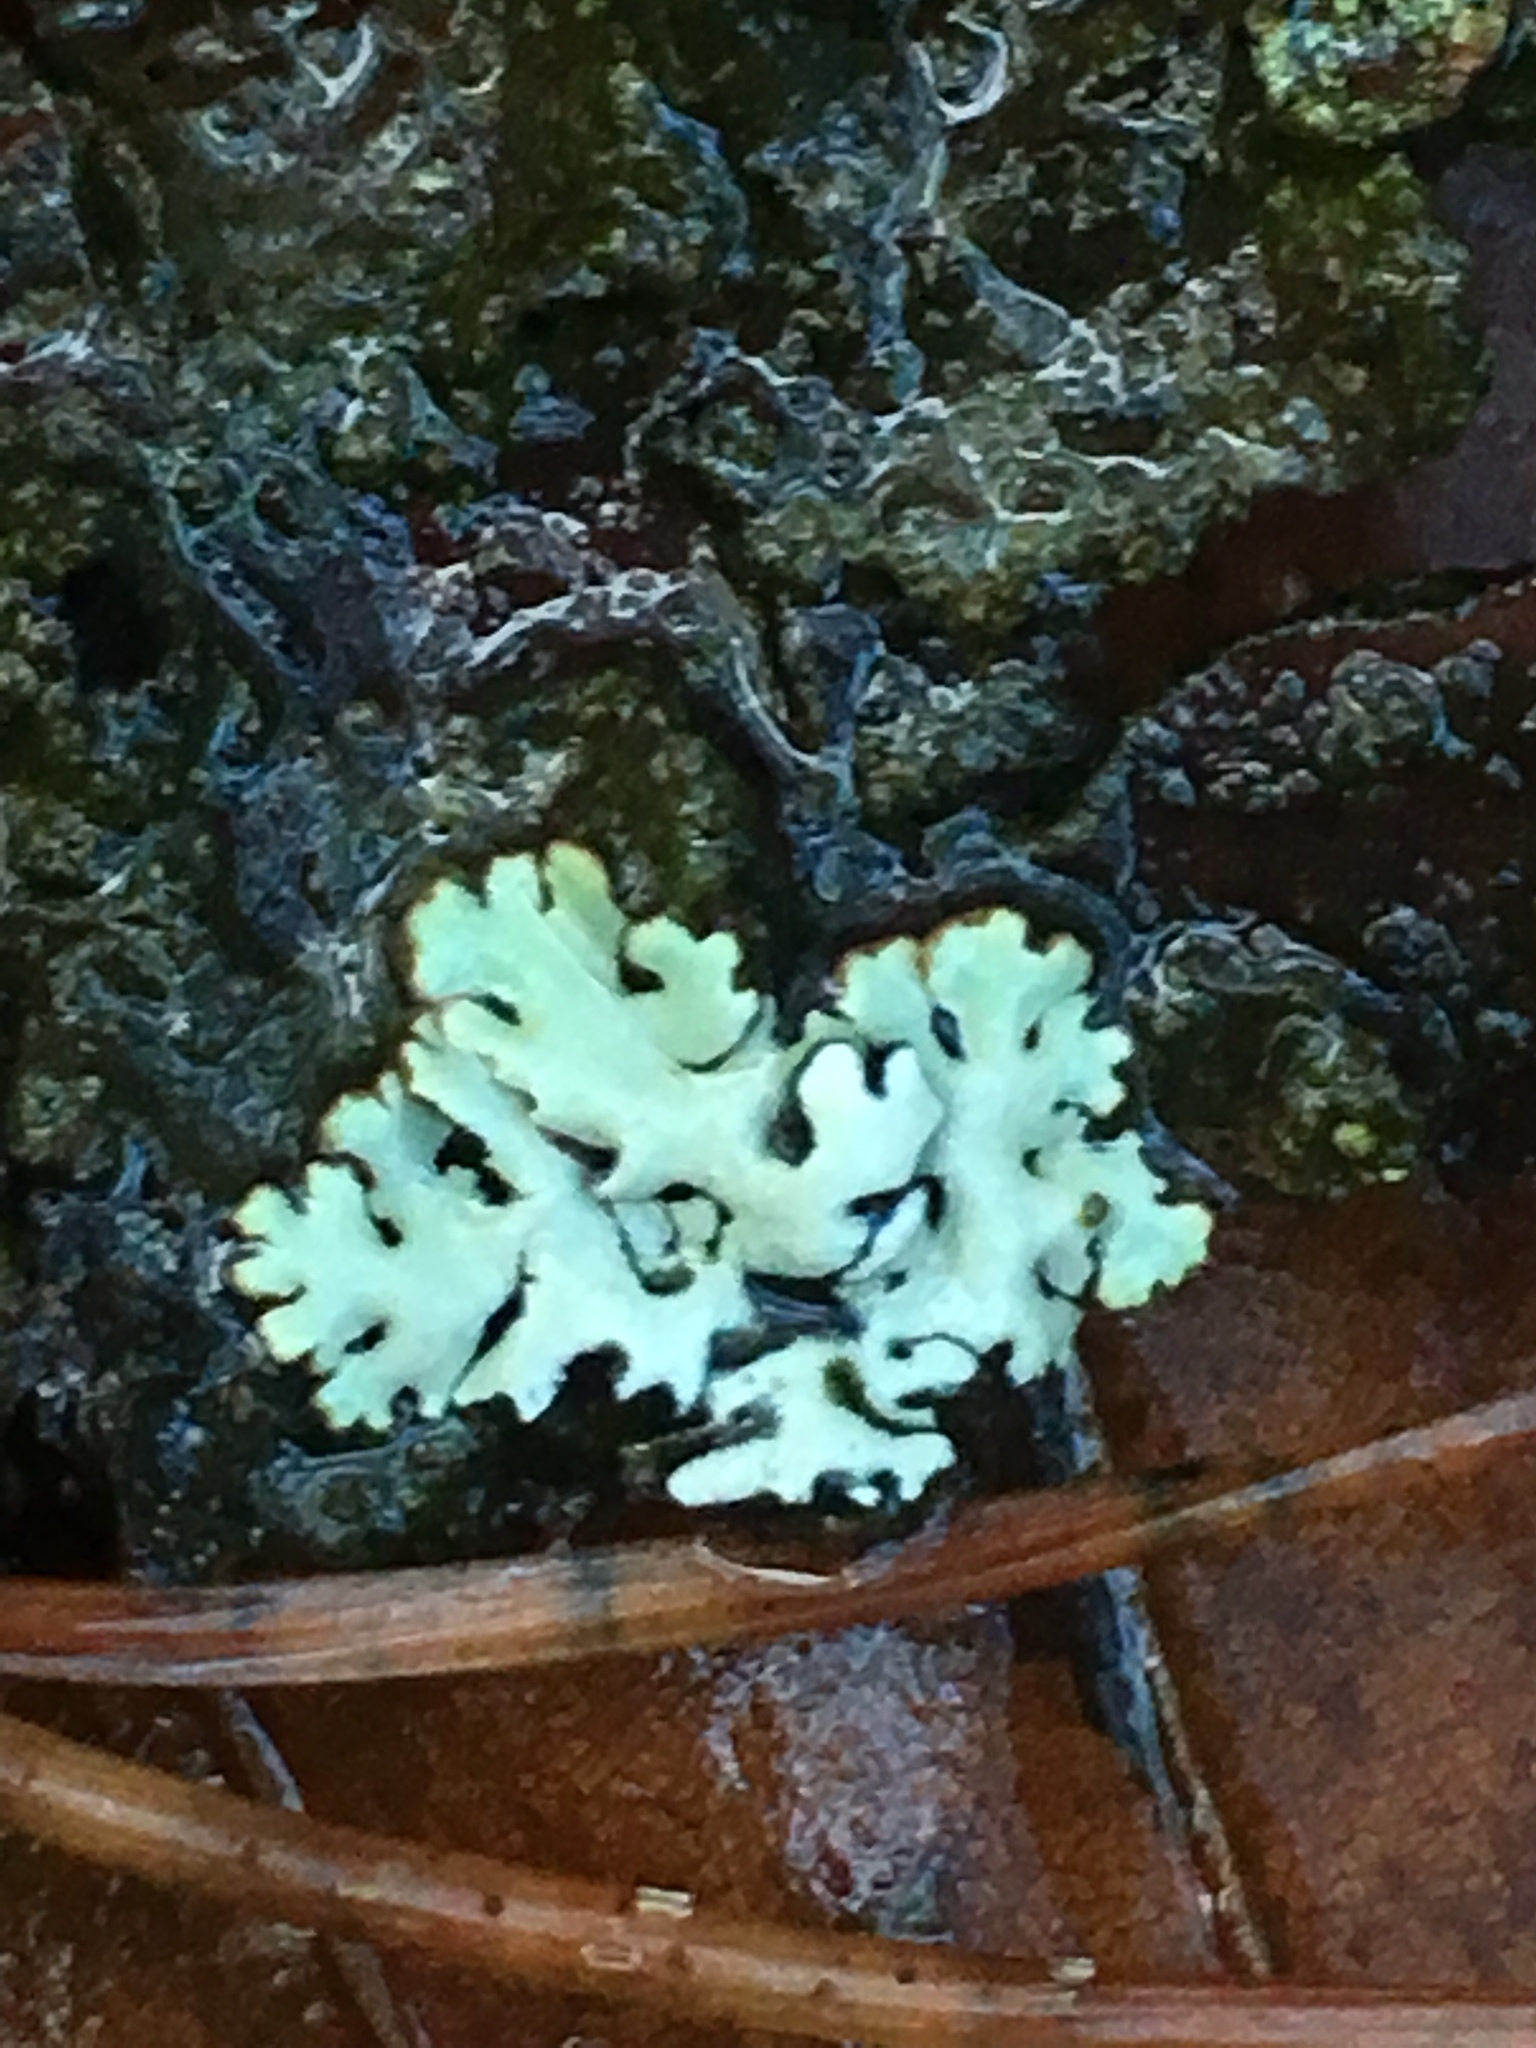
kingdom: Fungi
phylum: Ascomycota
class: Lecanoromycetes
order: Lecanorales
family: Parmeliaceae
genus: Hypogymnia
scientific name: Hypogymnia physodes
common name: Dark crottle
